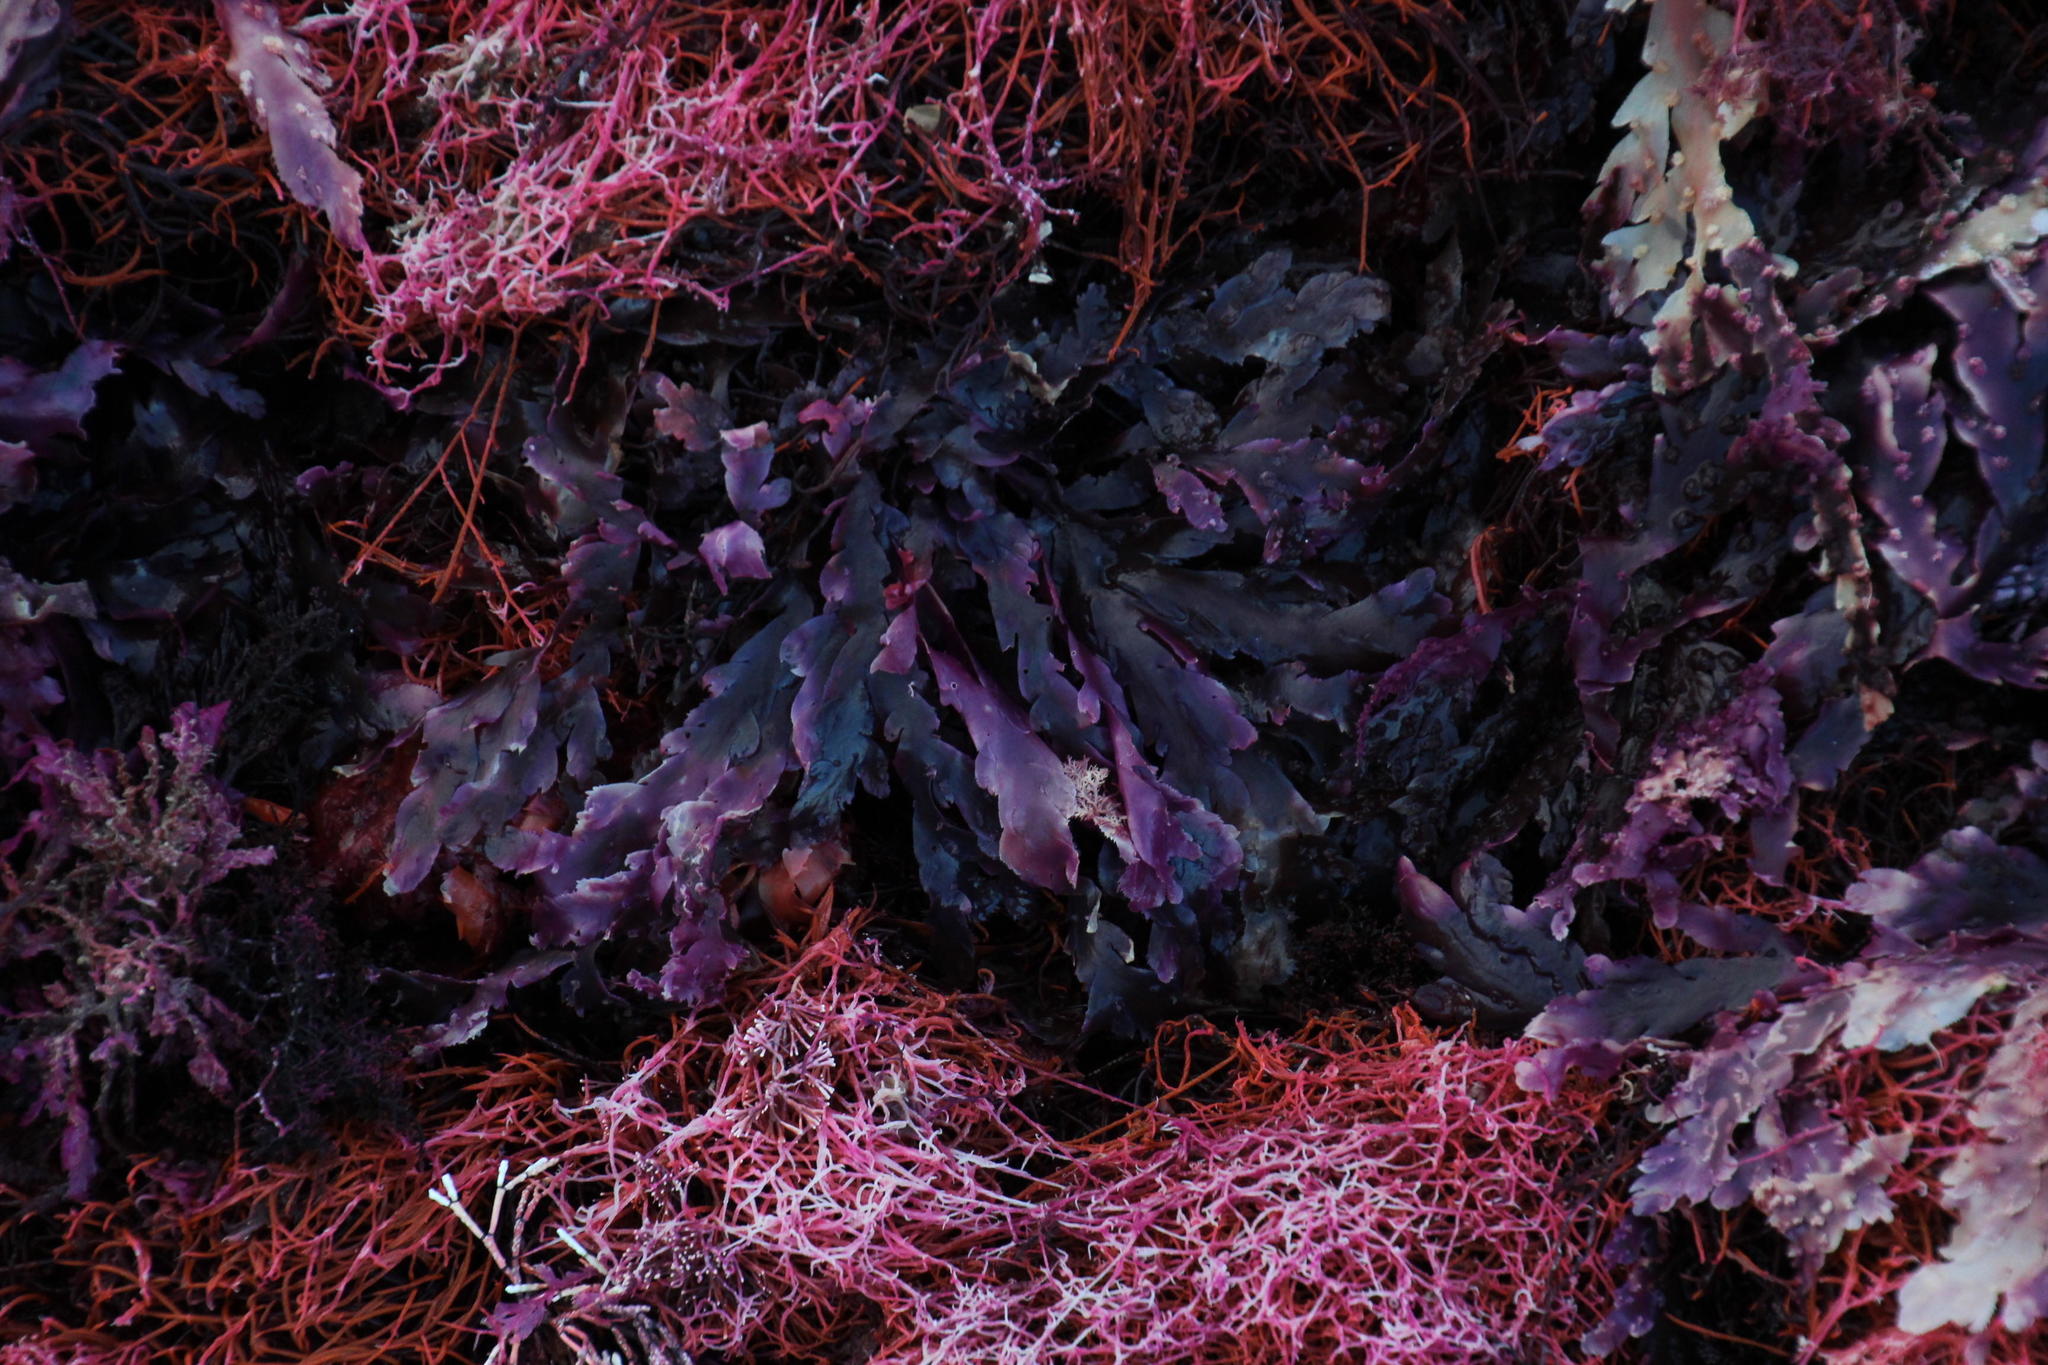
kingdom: Plantae
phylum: Rhodophyta
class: Florideophyceae
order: Plocamiales
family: Plocamiaceae
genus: Plocamium
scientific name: Plocamium corallorhiza
